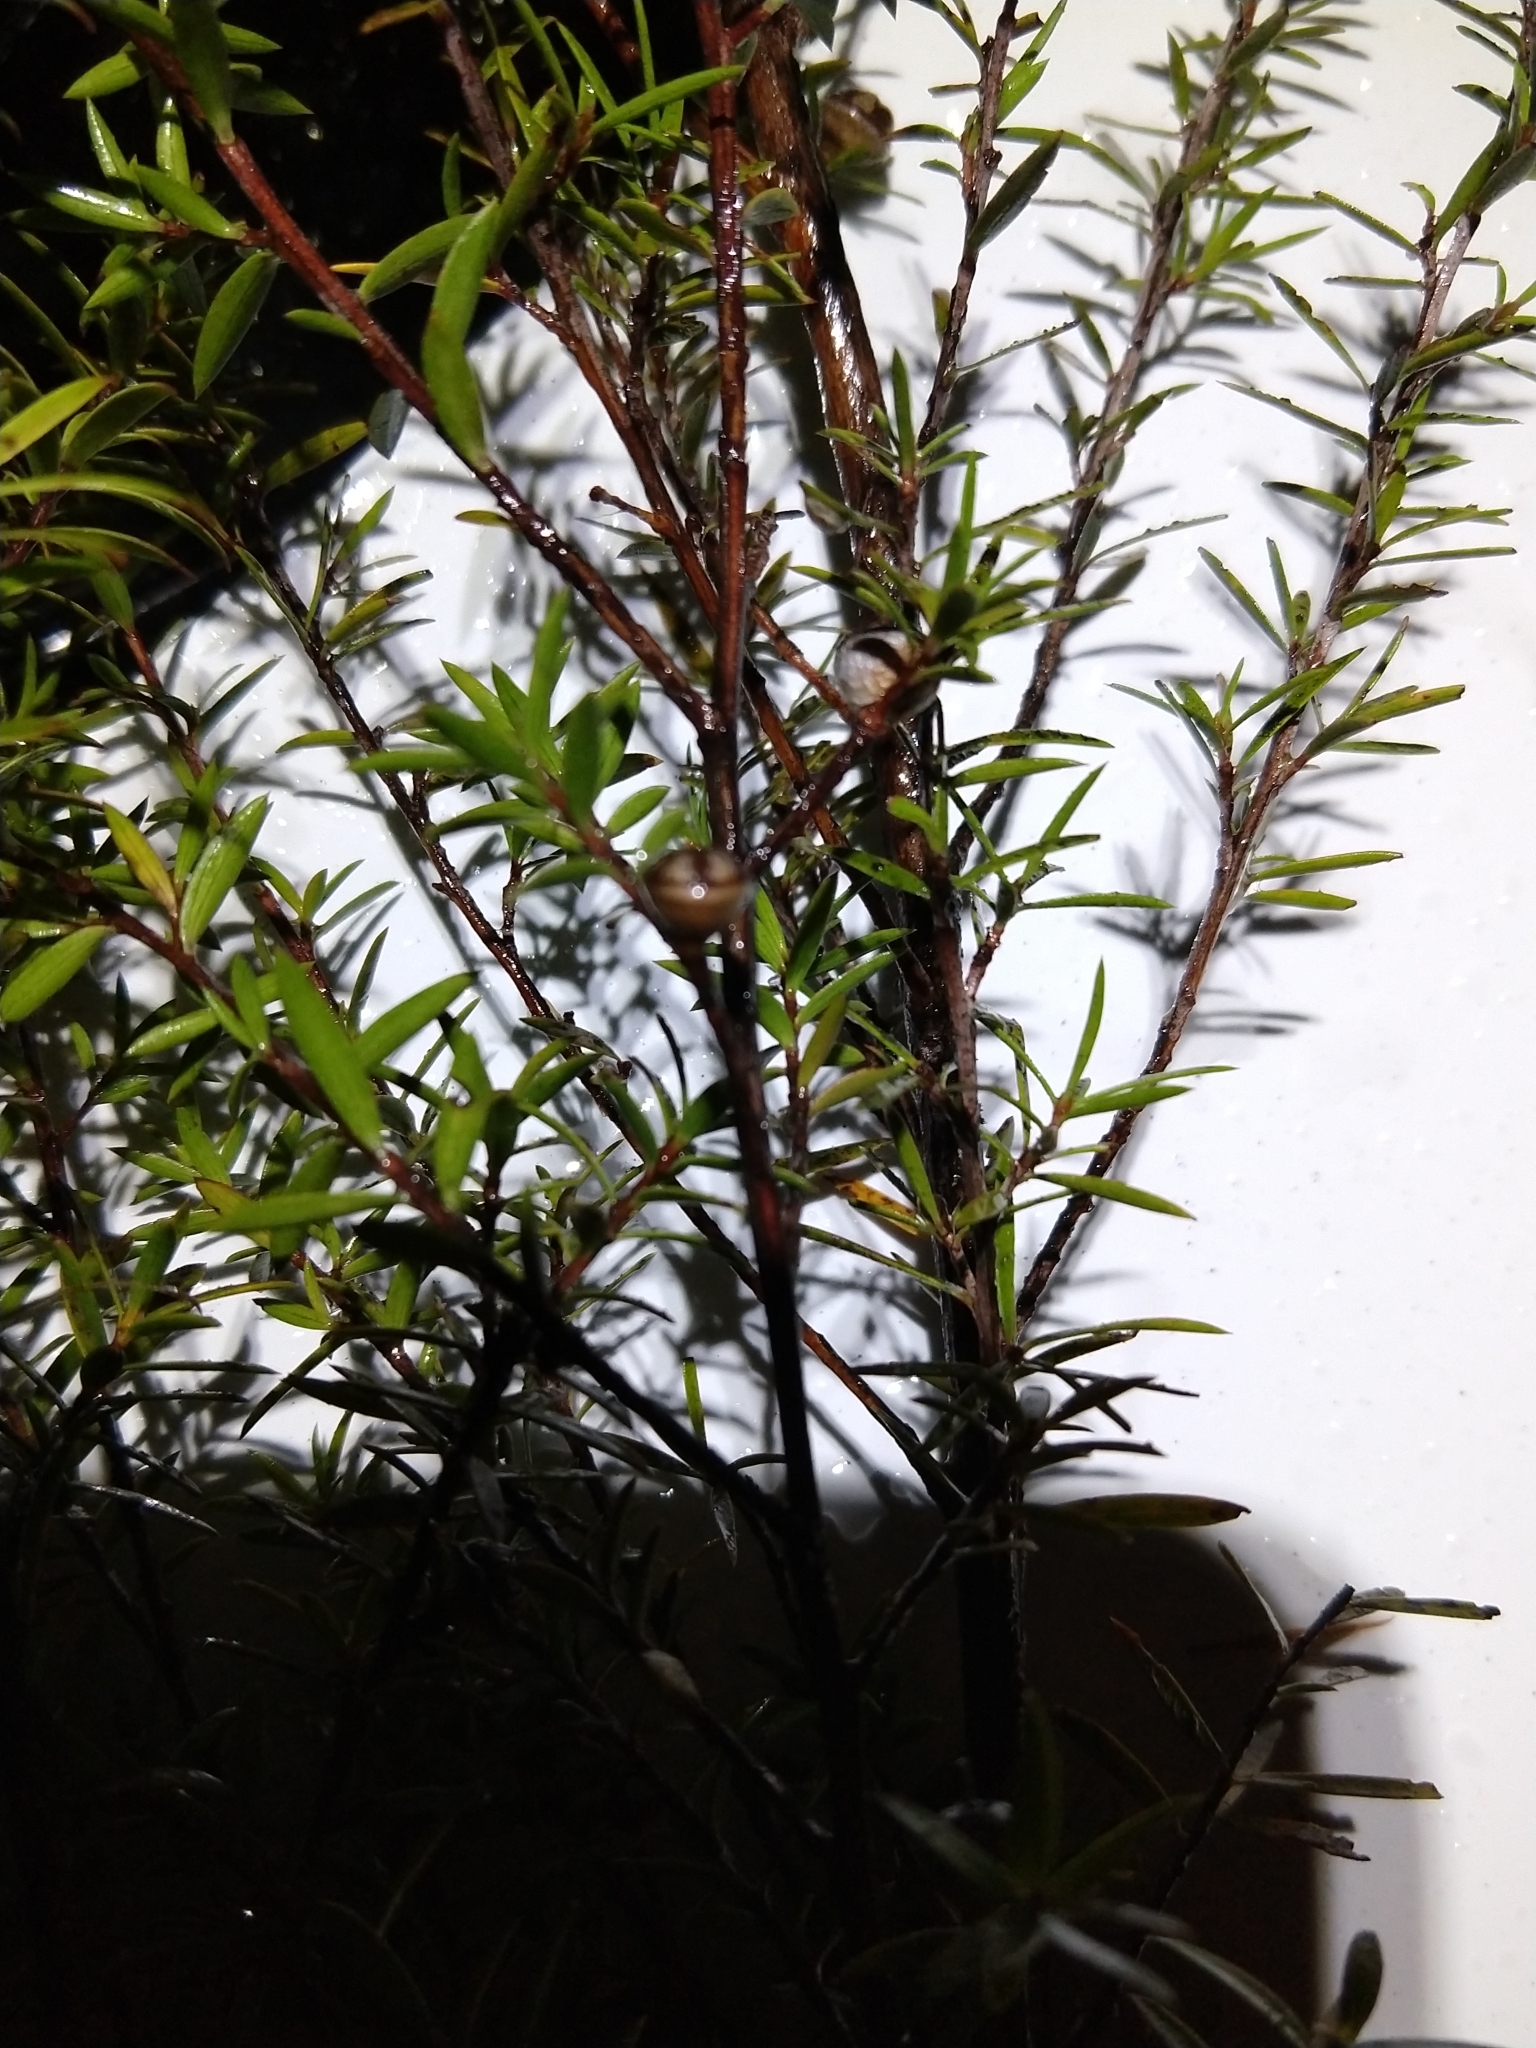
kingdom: Plantae
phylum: Tracheophyta
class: Magnoliopsida
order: Myrtales
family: Myrtaceae
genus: Leptospermum
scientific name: Leptospermum scoparium
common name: Broom tea-tree
